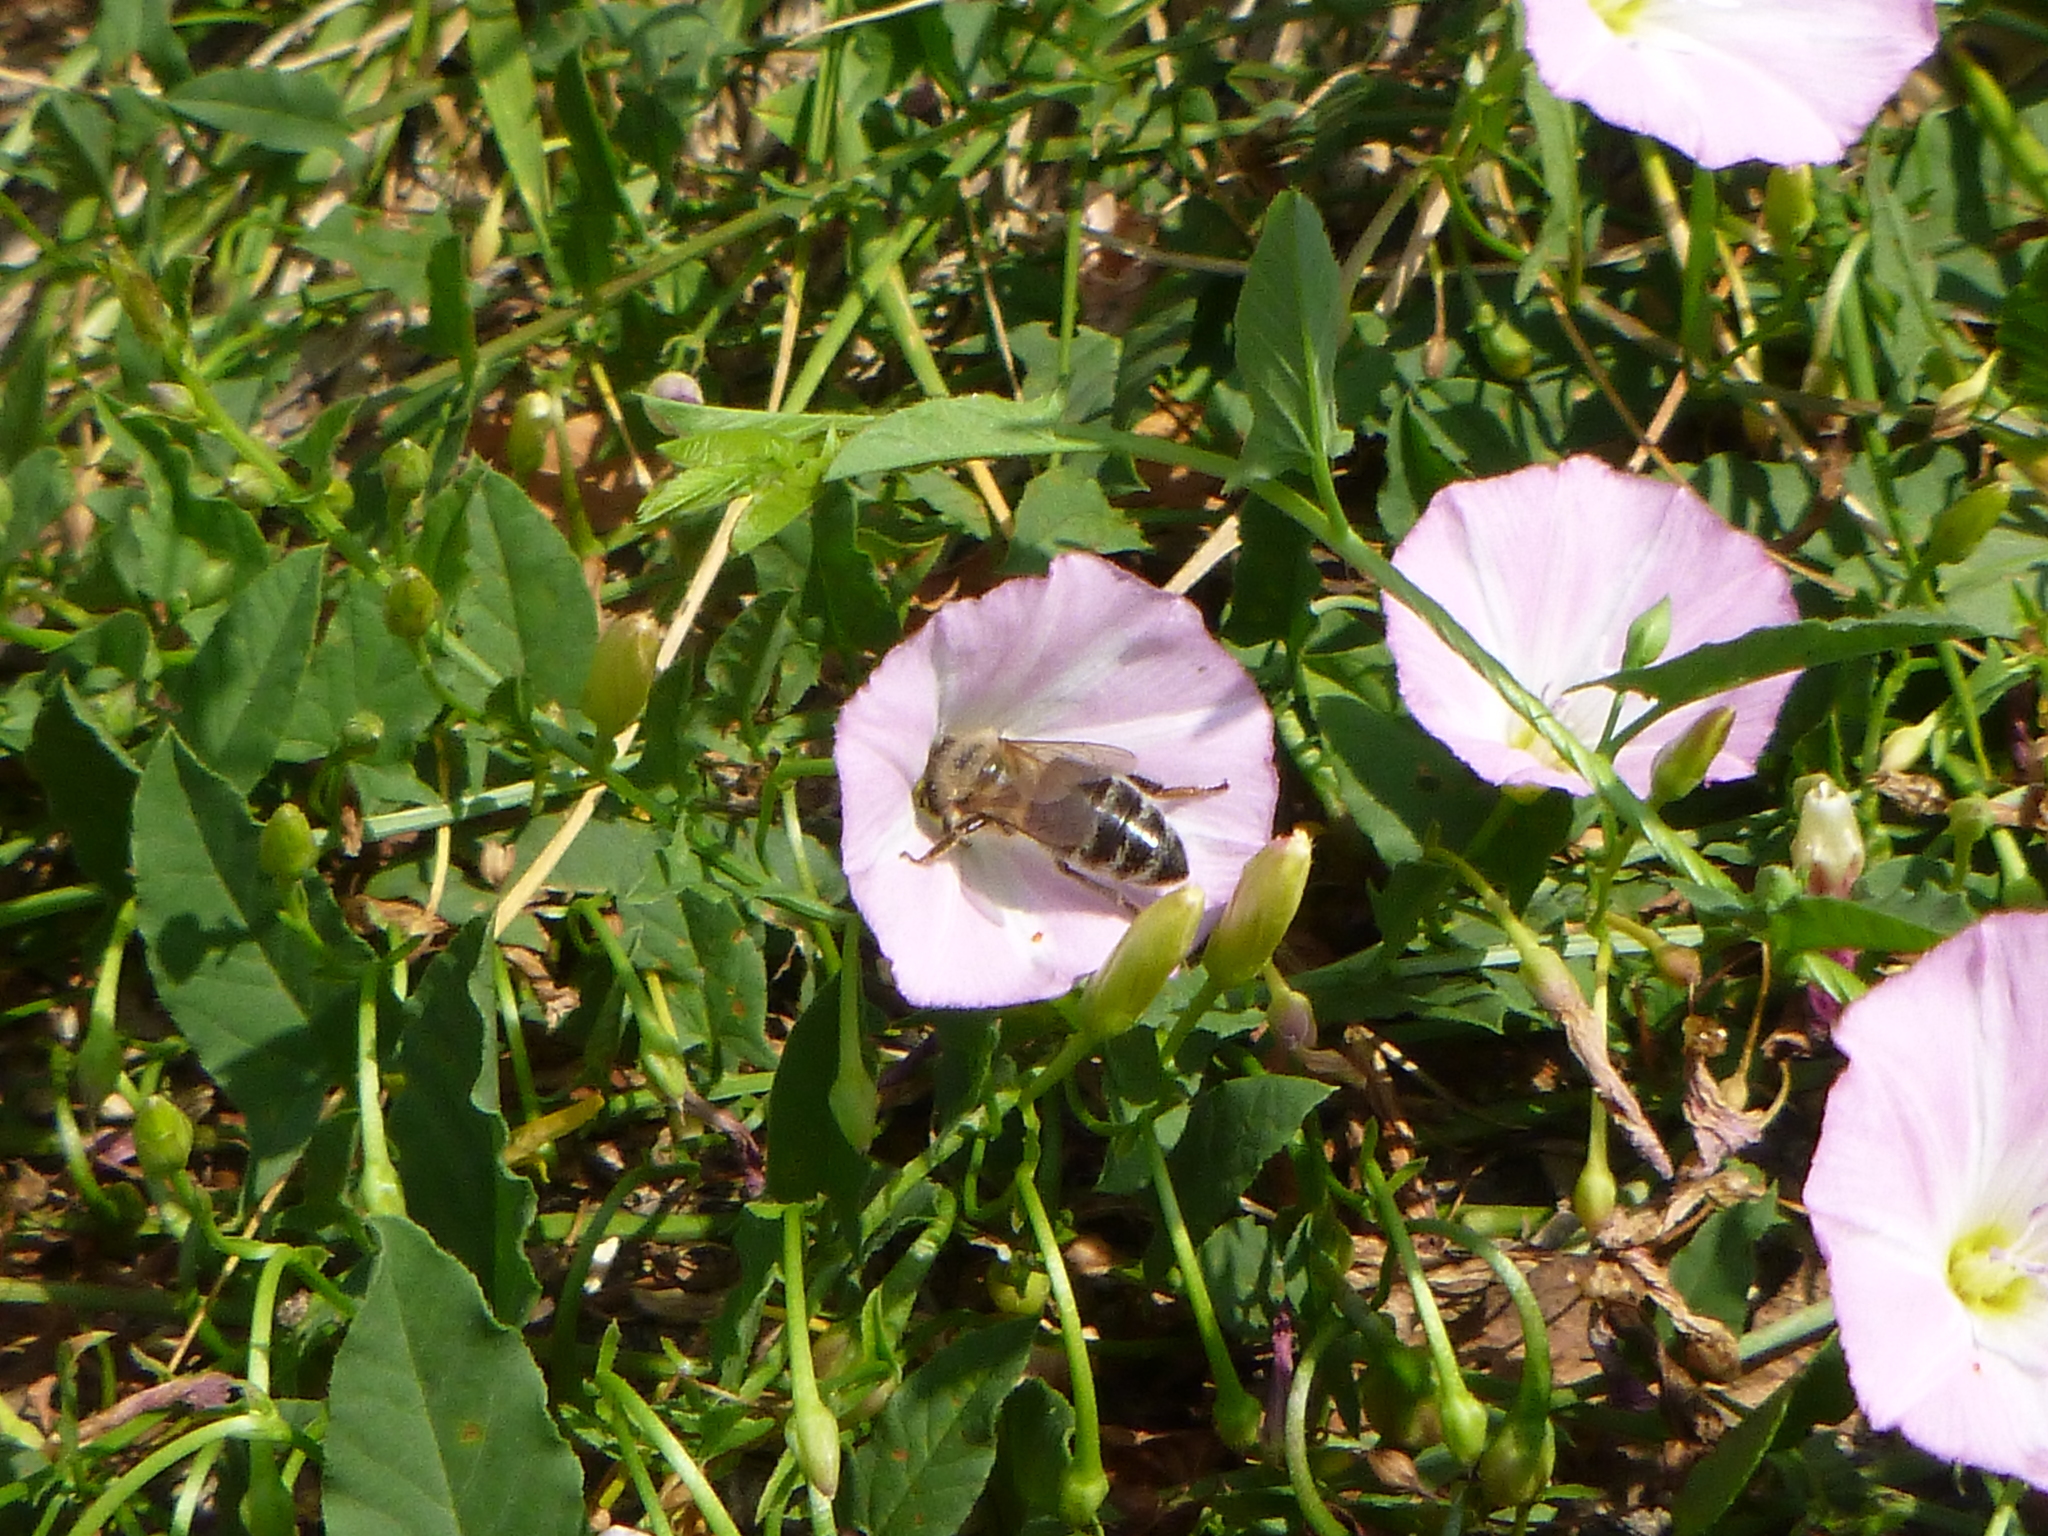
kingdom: Animalia
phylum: Arthropoda
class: Insecta
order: Hymenoptera
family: Apidae
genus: Apis
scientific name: Apis mellifera
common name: Honey bee
